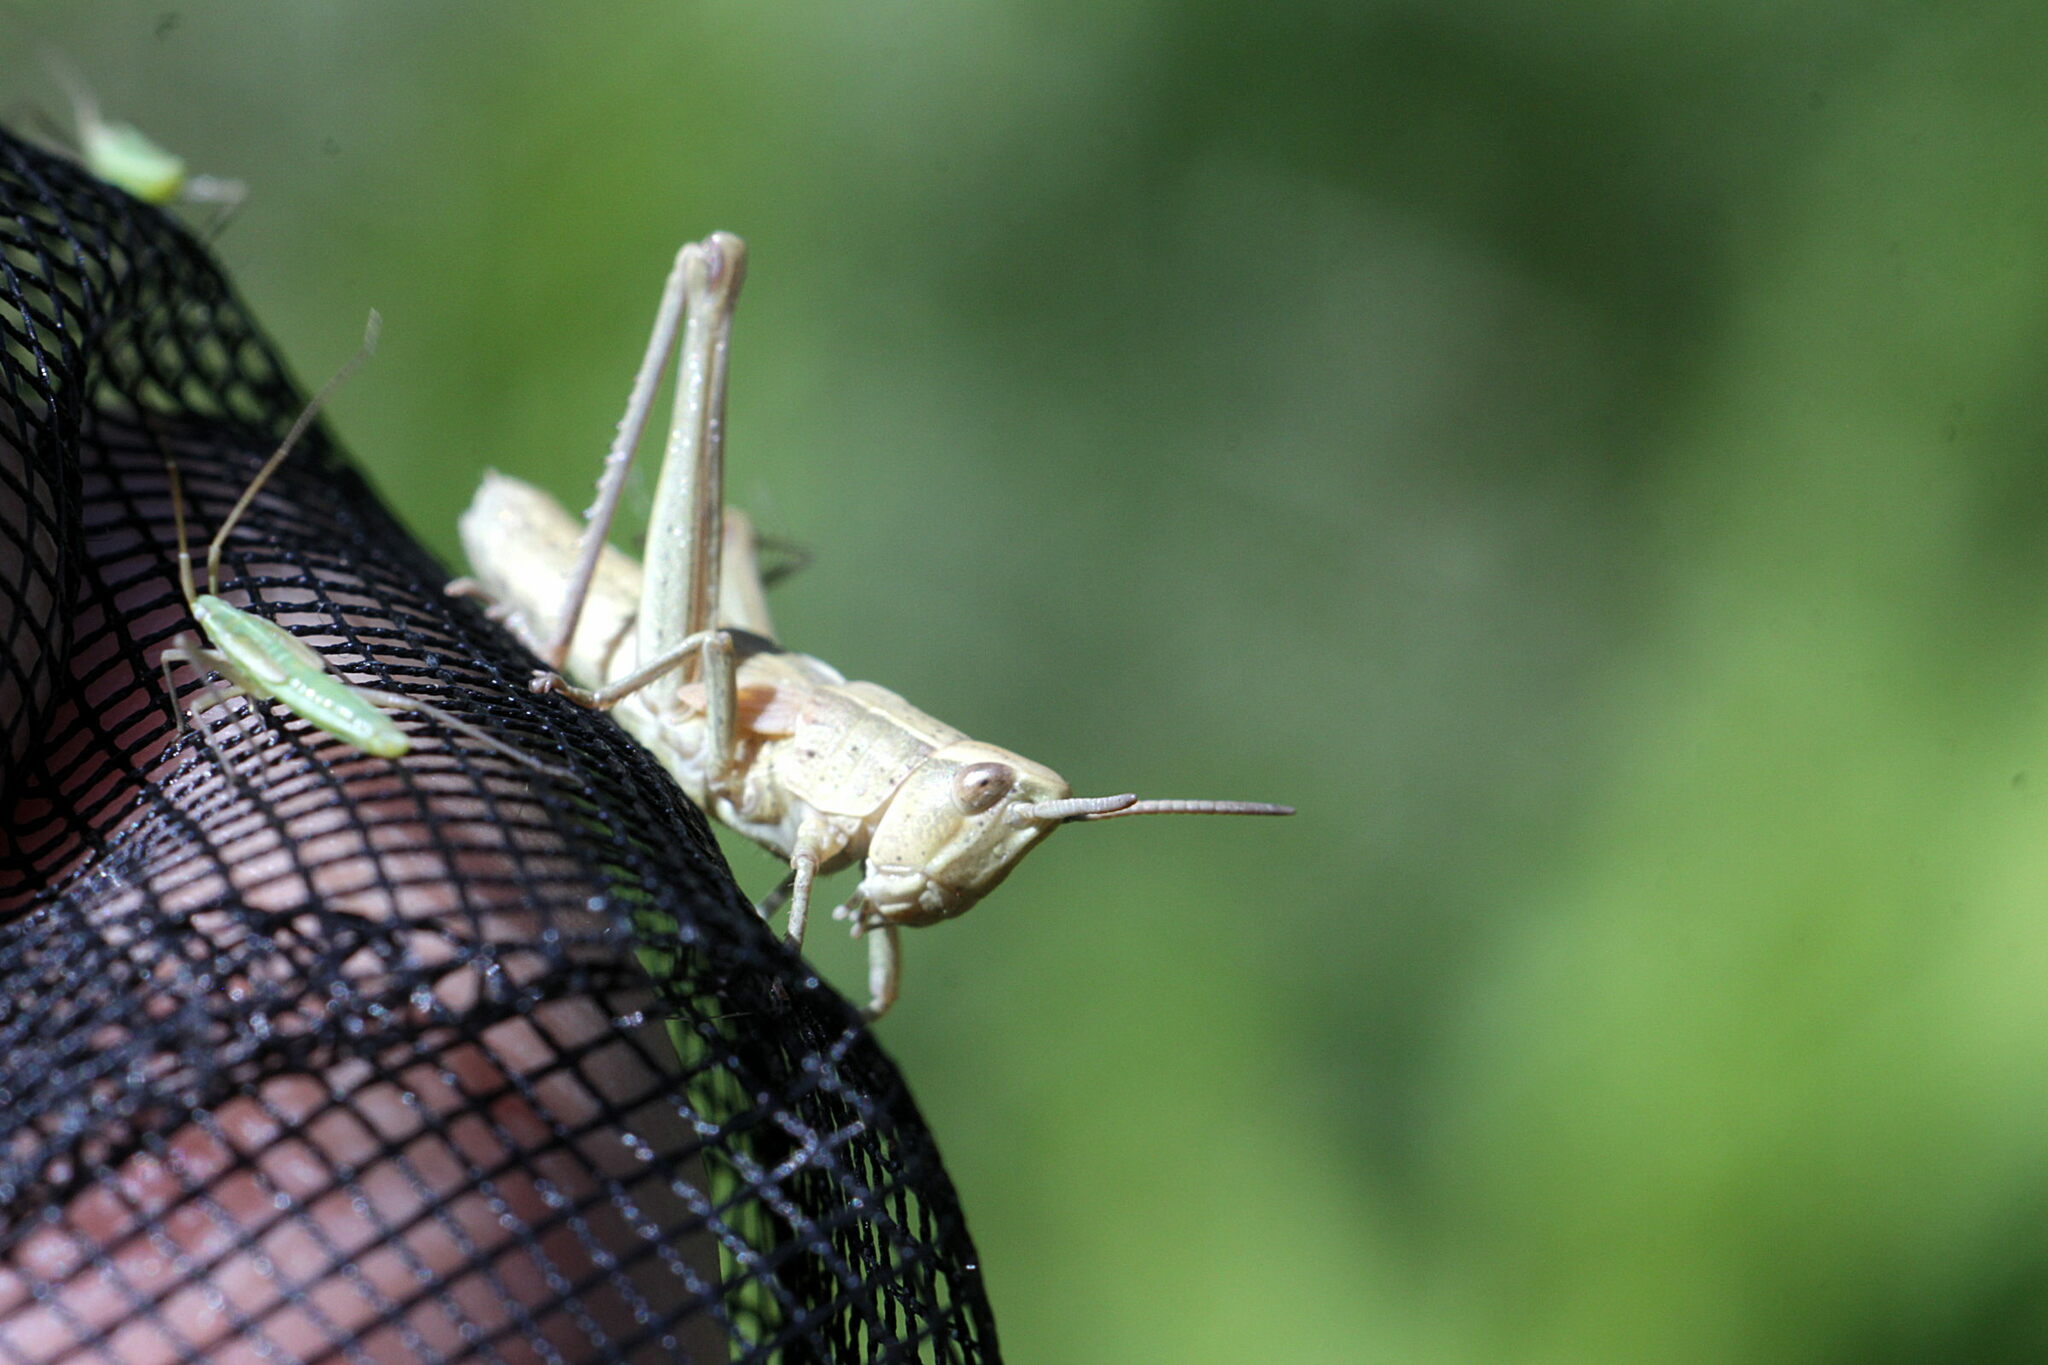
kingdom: Animalia
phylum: Arthropoda
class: Insecta
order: Orthoptera
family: Acrididae
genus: Chrysochraon
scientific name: Chrysochraon dispar
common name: Large gold grasshopper
